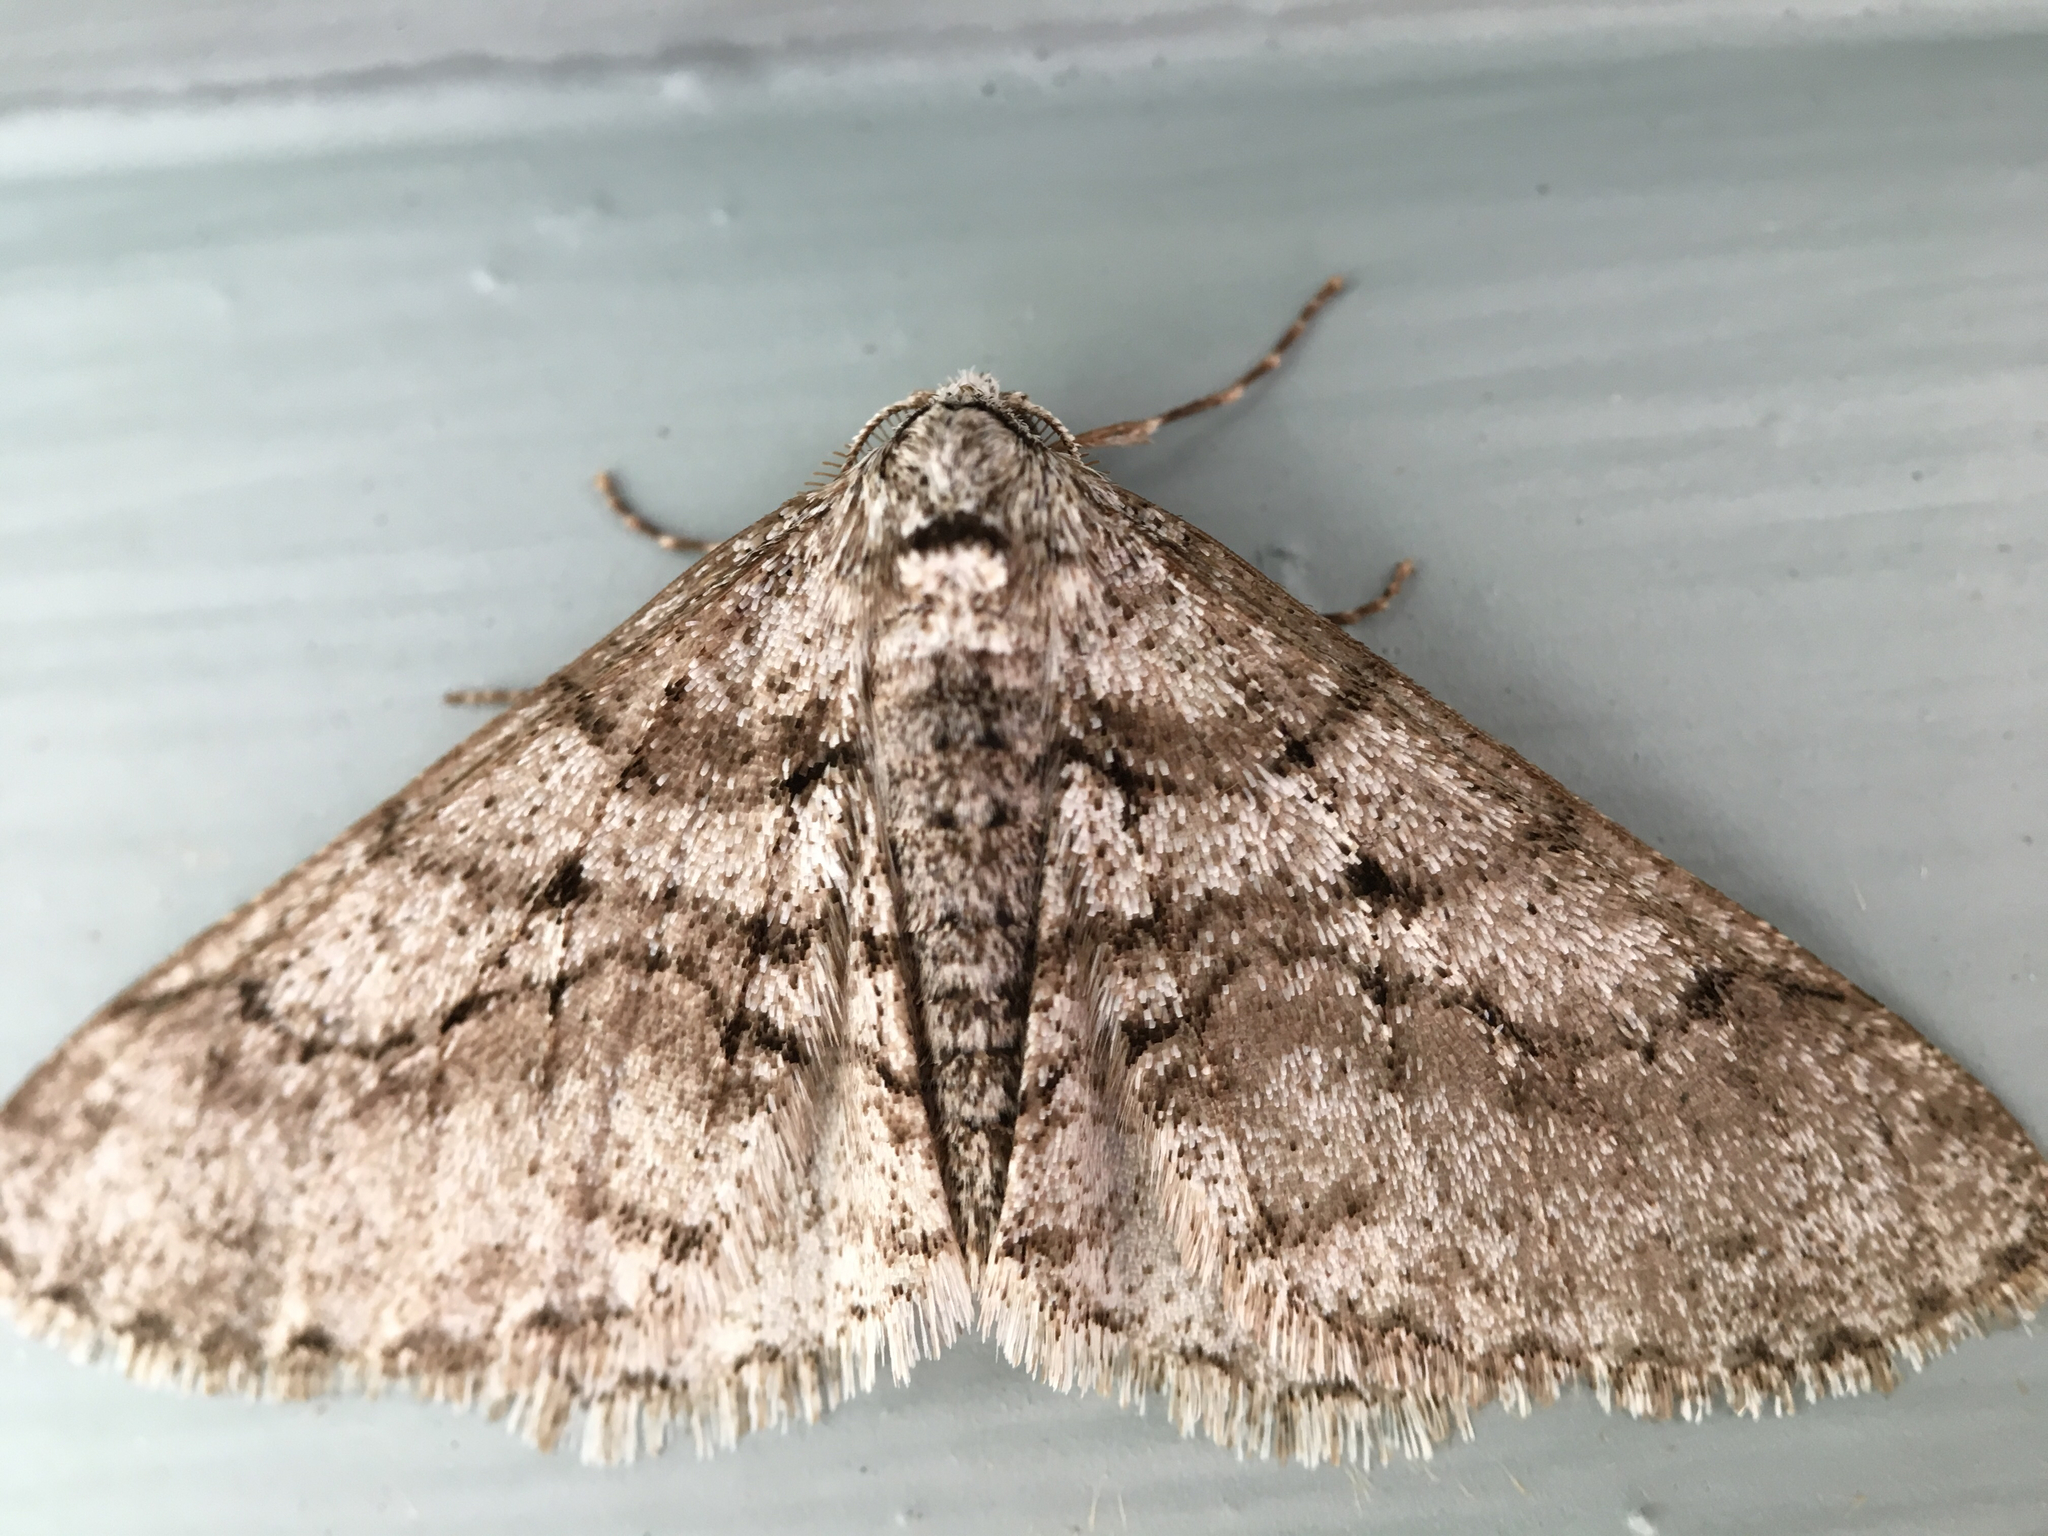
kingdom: Animalia
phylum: Arthropoda
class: Insecta
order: Lepidoptera
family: Geometridae
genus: Phigalia
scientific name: Phigalia titea
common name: Spiny looper
